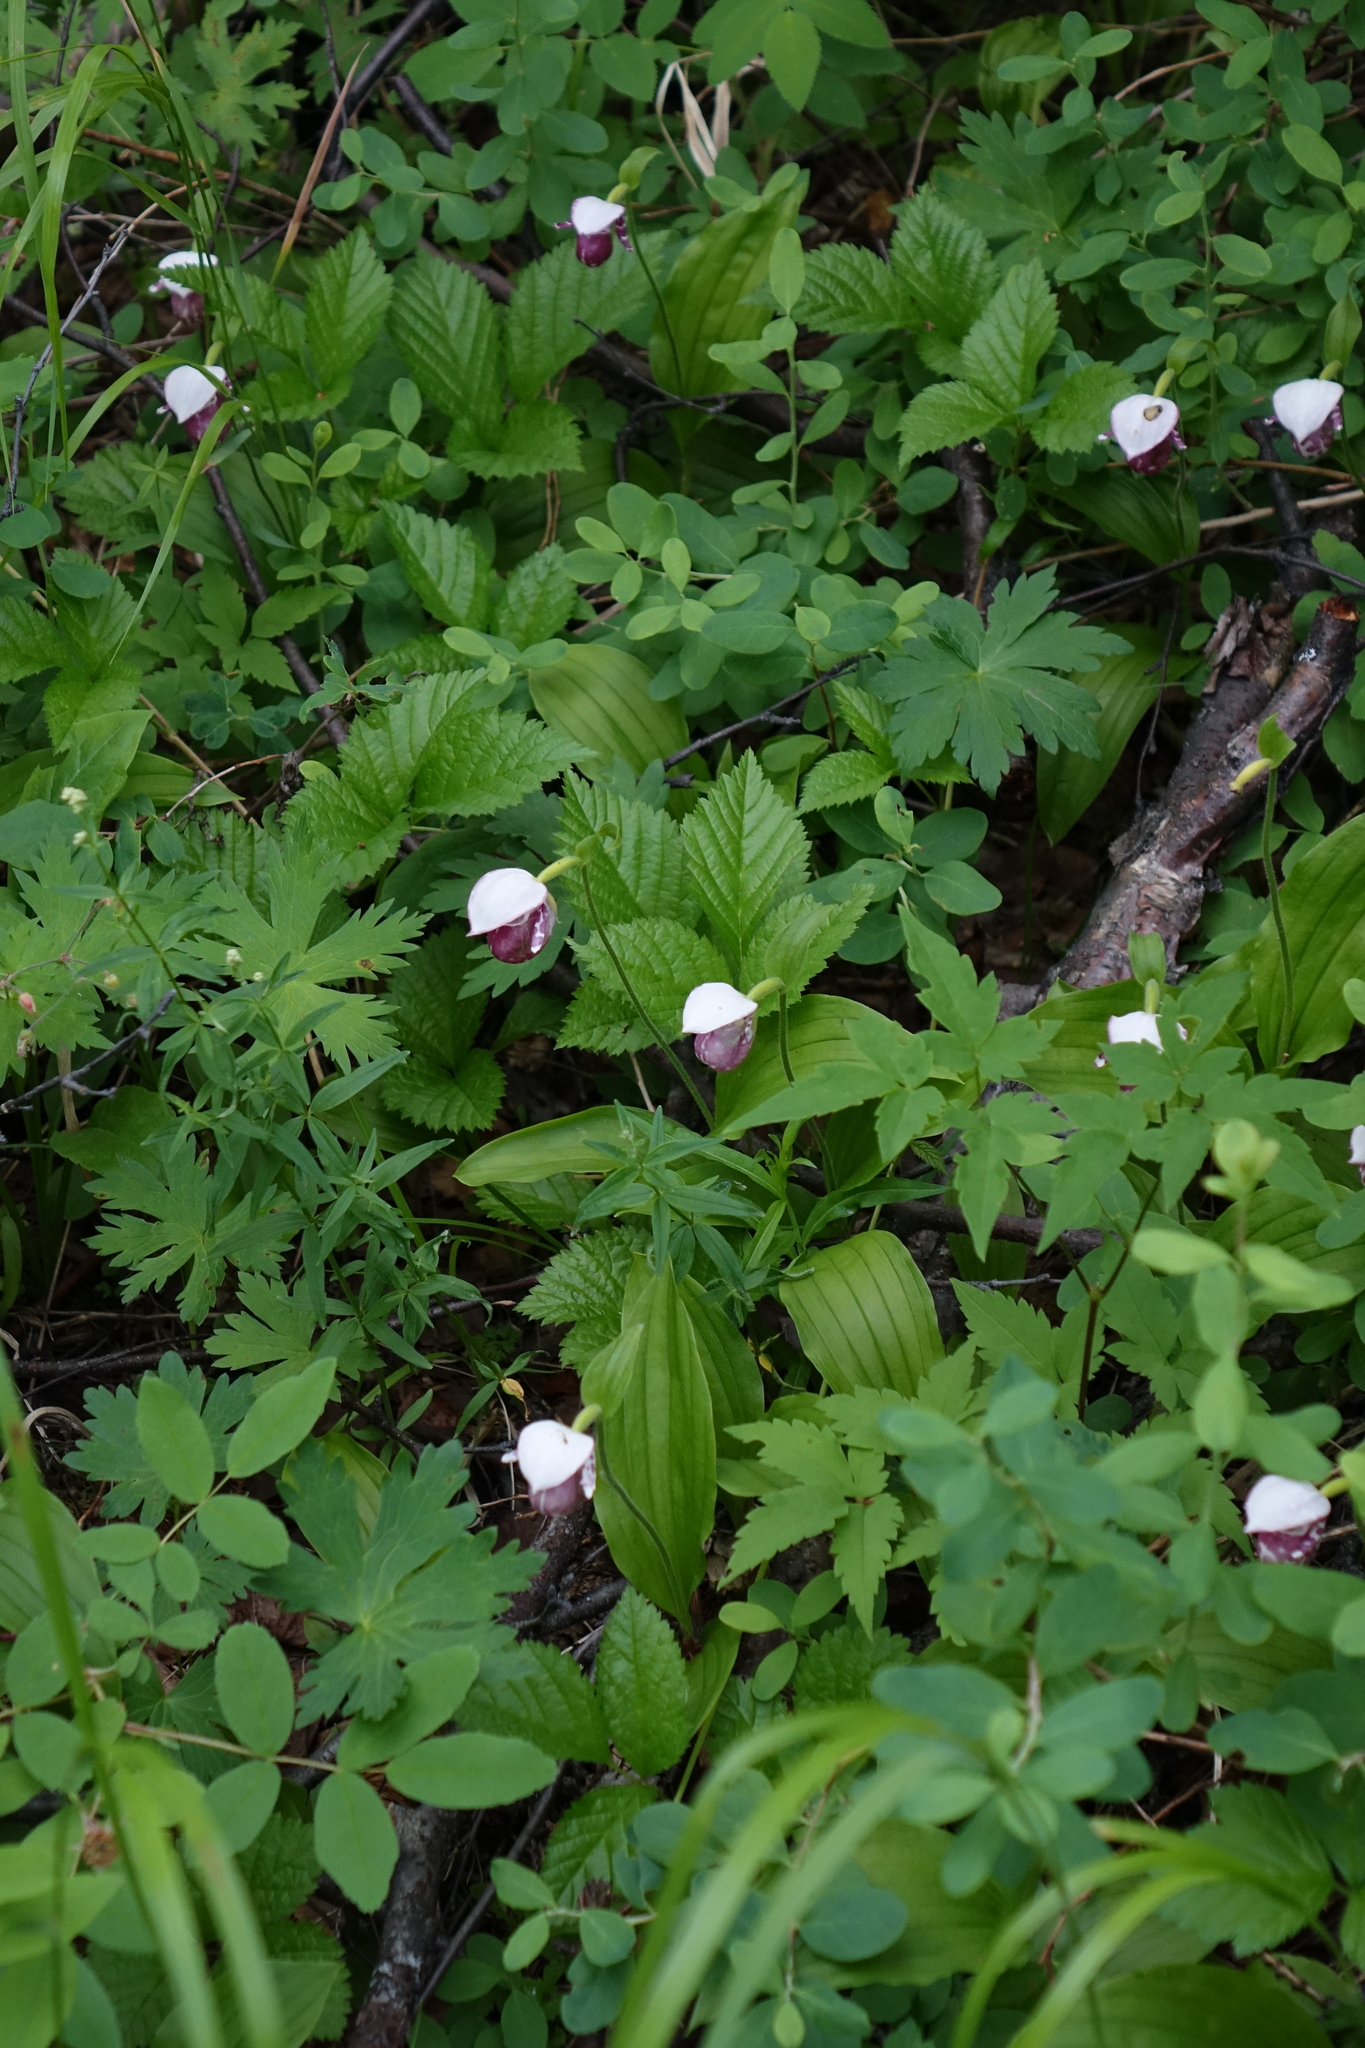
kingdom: Plantae
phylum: Tracheophyta
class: Liliopsida
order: Asparagales
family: Orchidaceae
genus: Cypripedium
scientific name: Cypripedium guttatum
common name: Pink lady slipper
